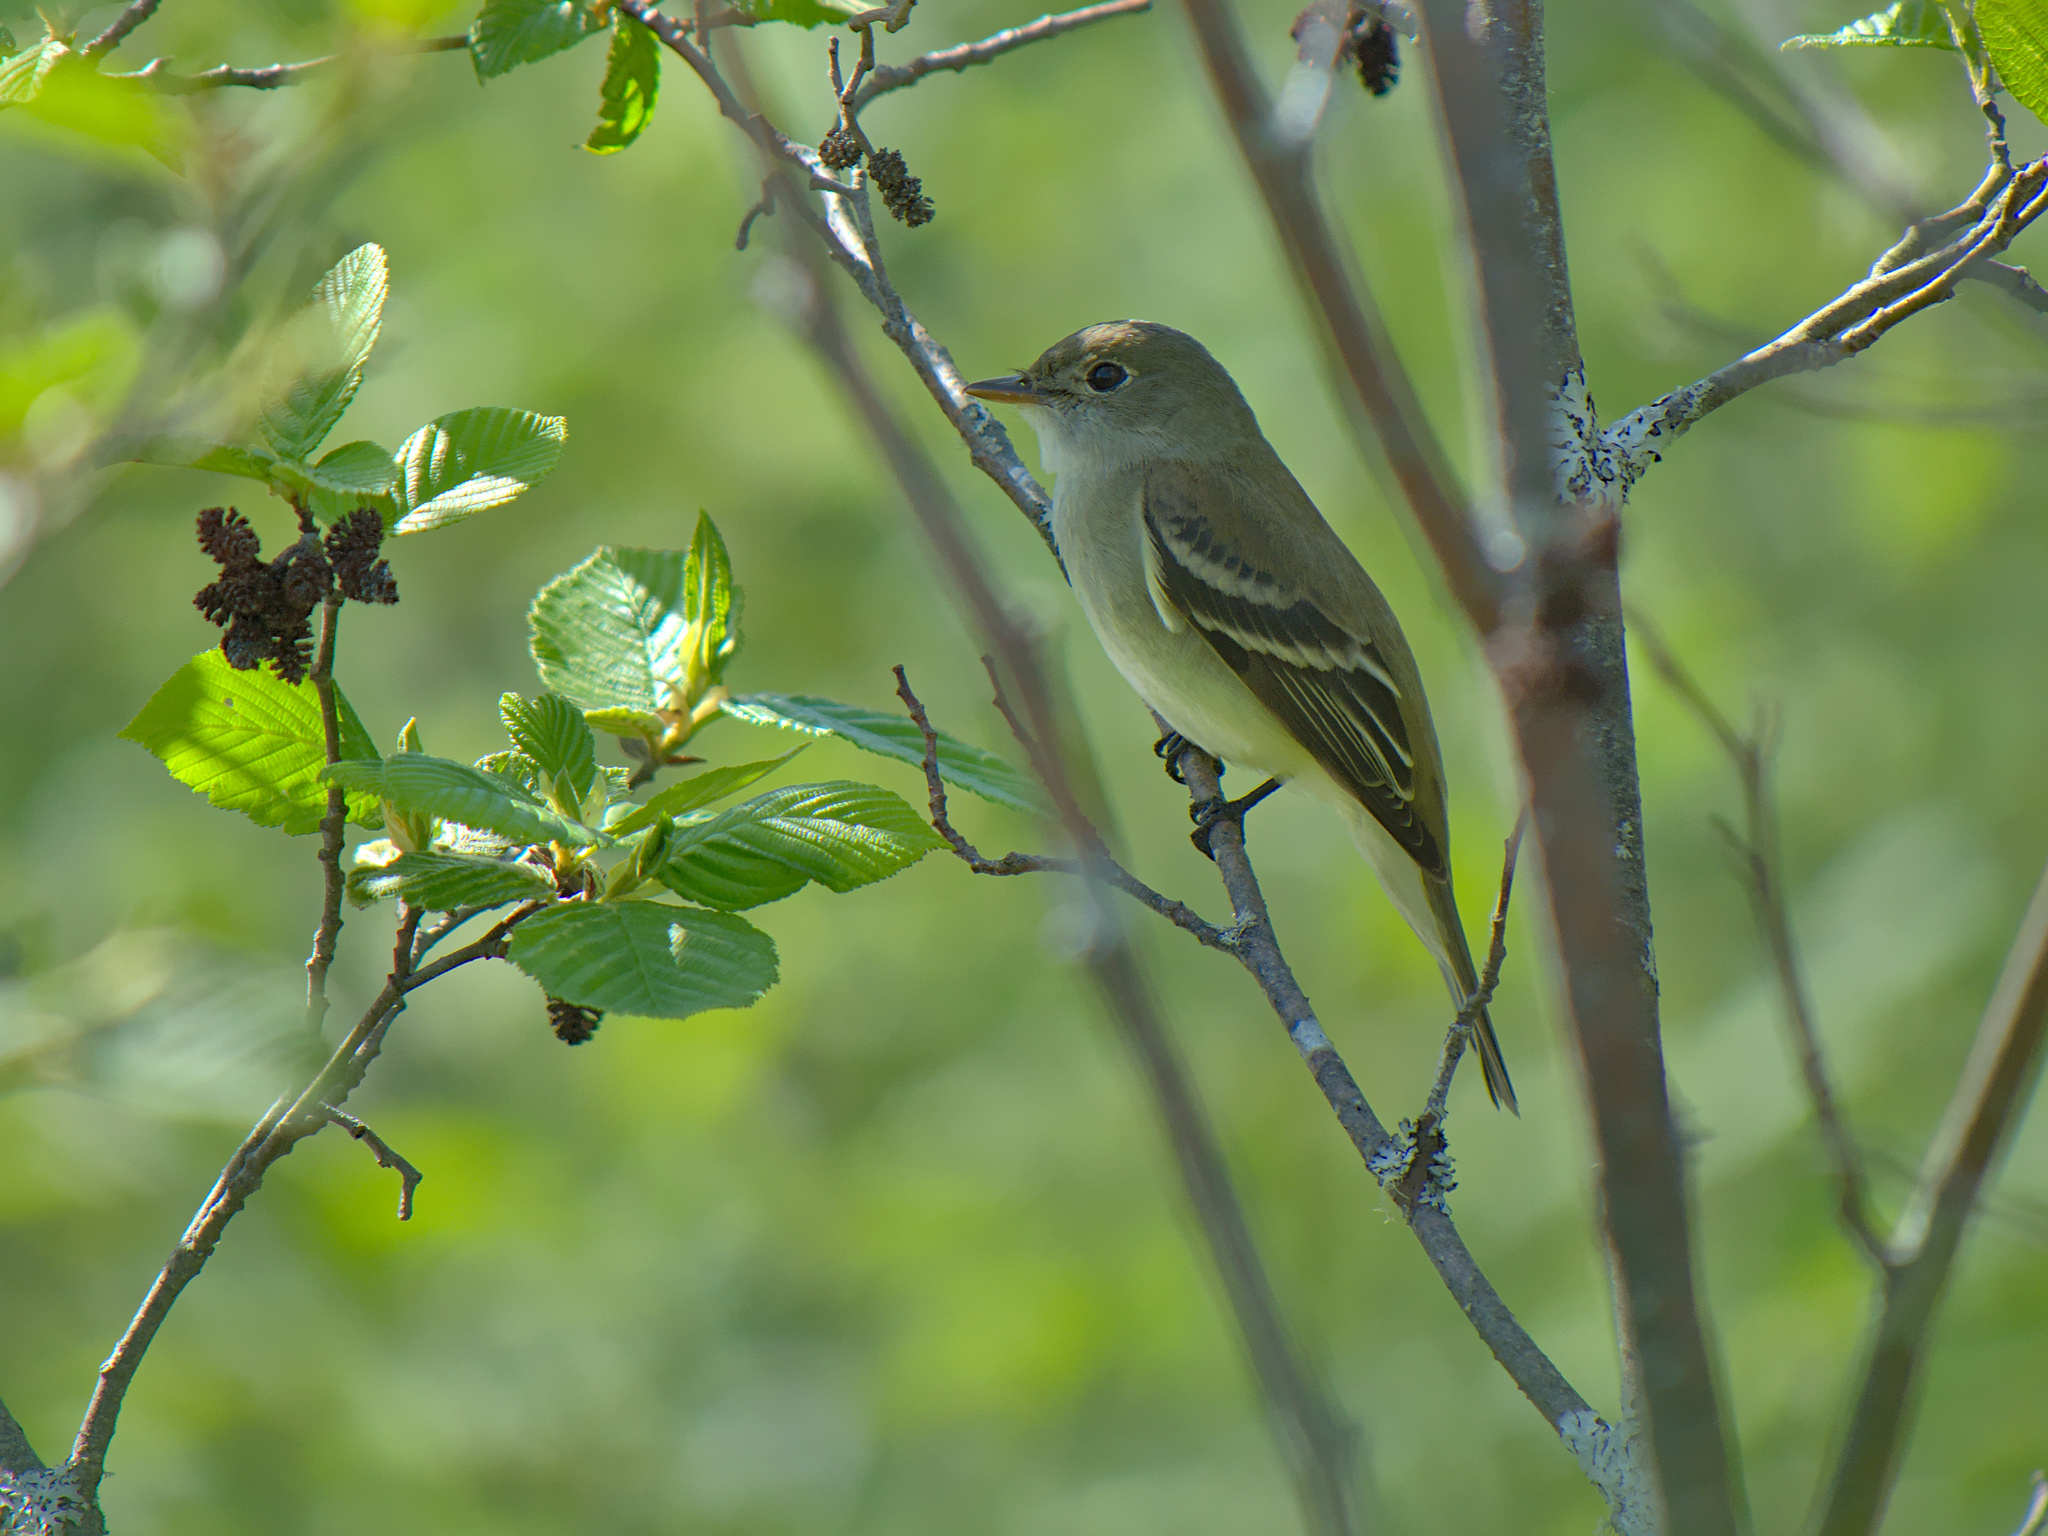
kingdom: Animalia
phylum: Chordata
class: Aves
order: Passeriformes
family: Tyrannidae
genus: Empidonax
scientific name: Empidonax alnorum
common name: Alder flycatcher
